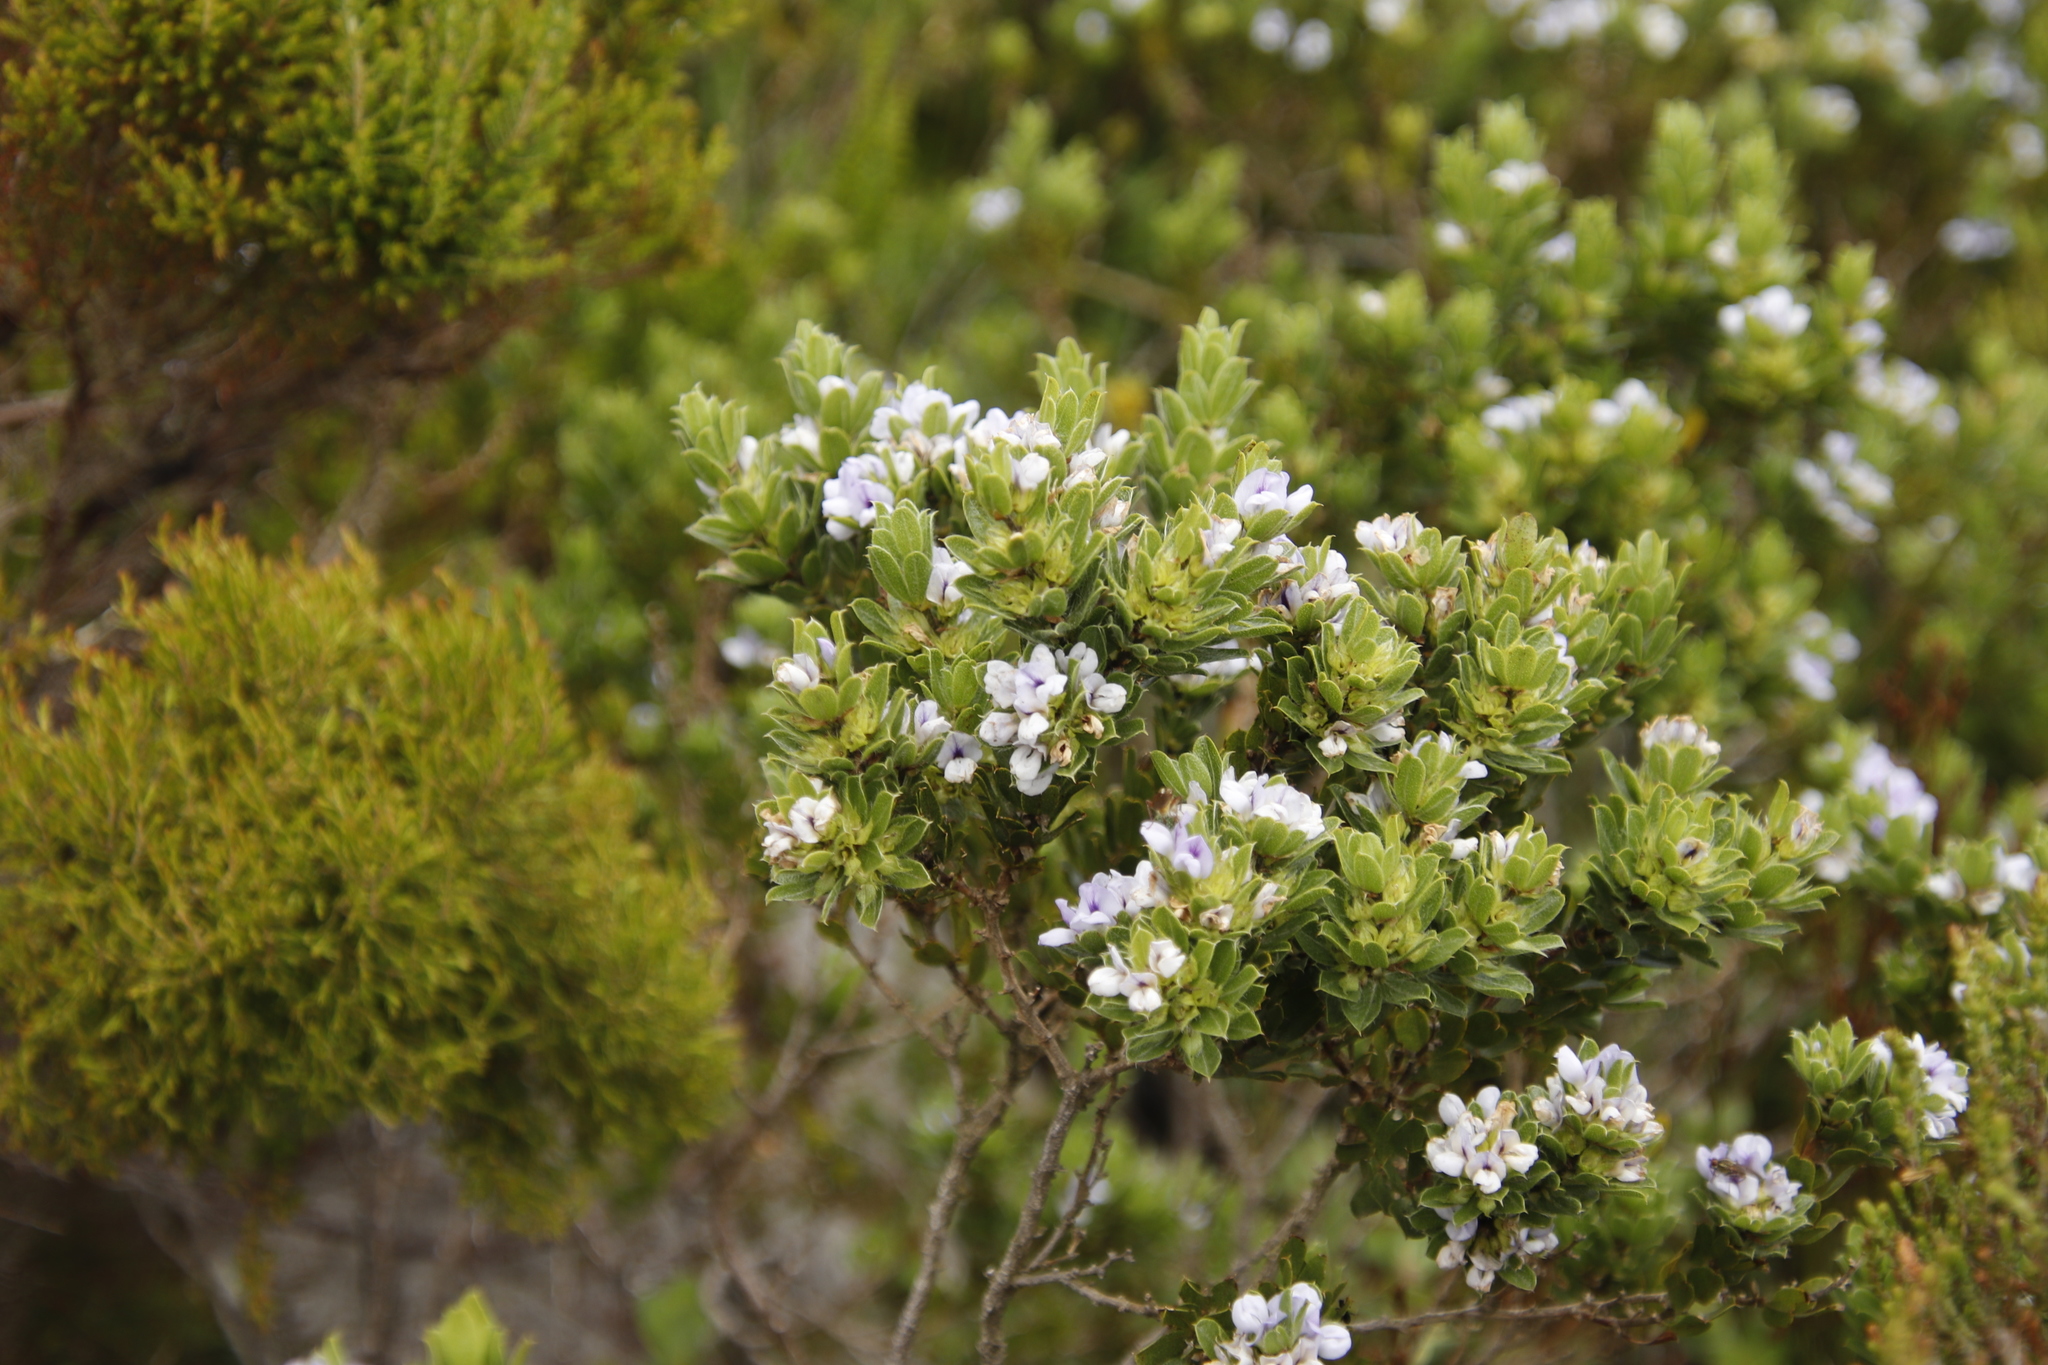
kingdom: Plantae
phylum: Tracheophyta
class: Magnoliopsida
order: Fabales
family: Fabaceae
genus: Psoralea
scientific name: Psoralea obliqua
